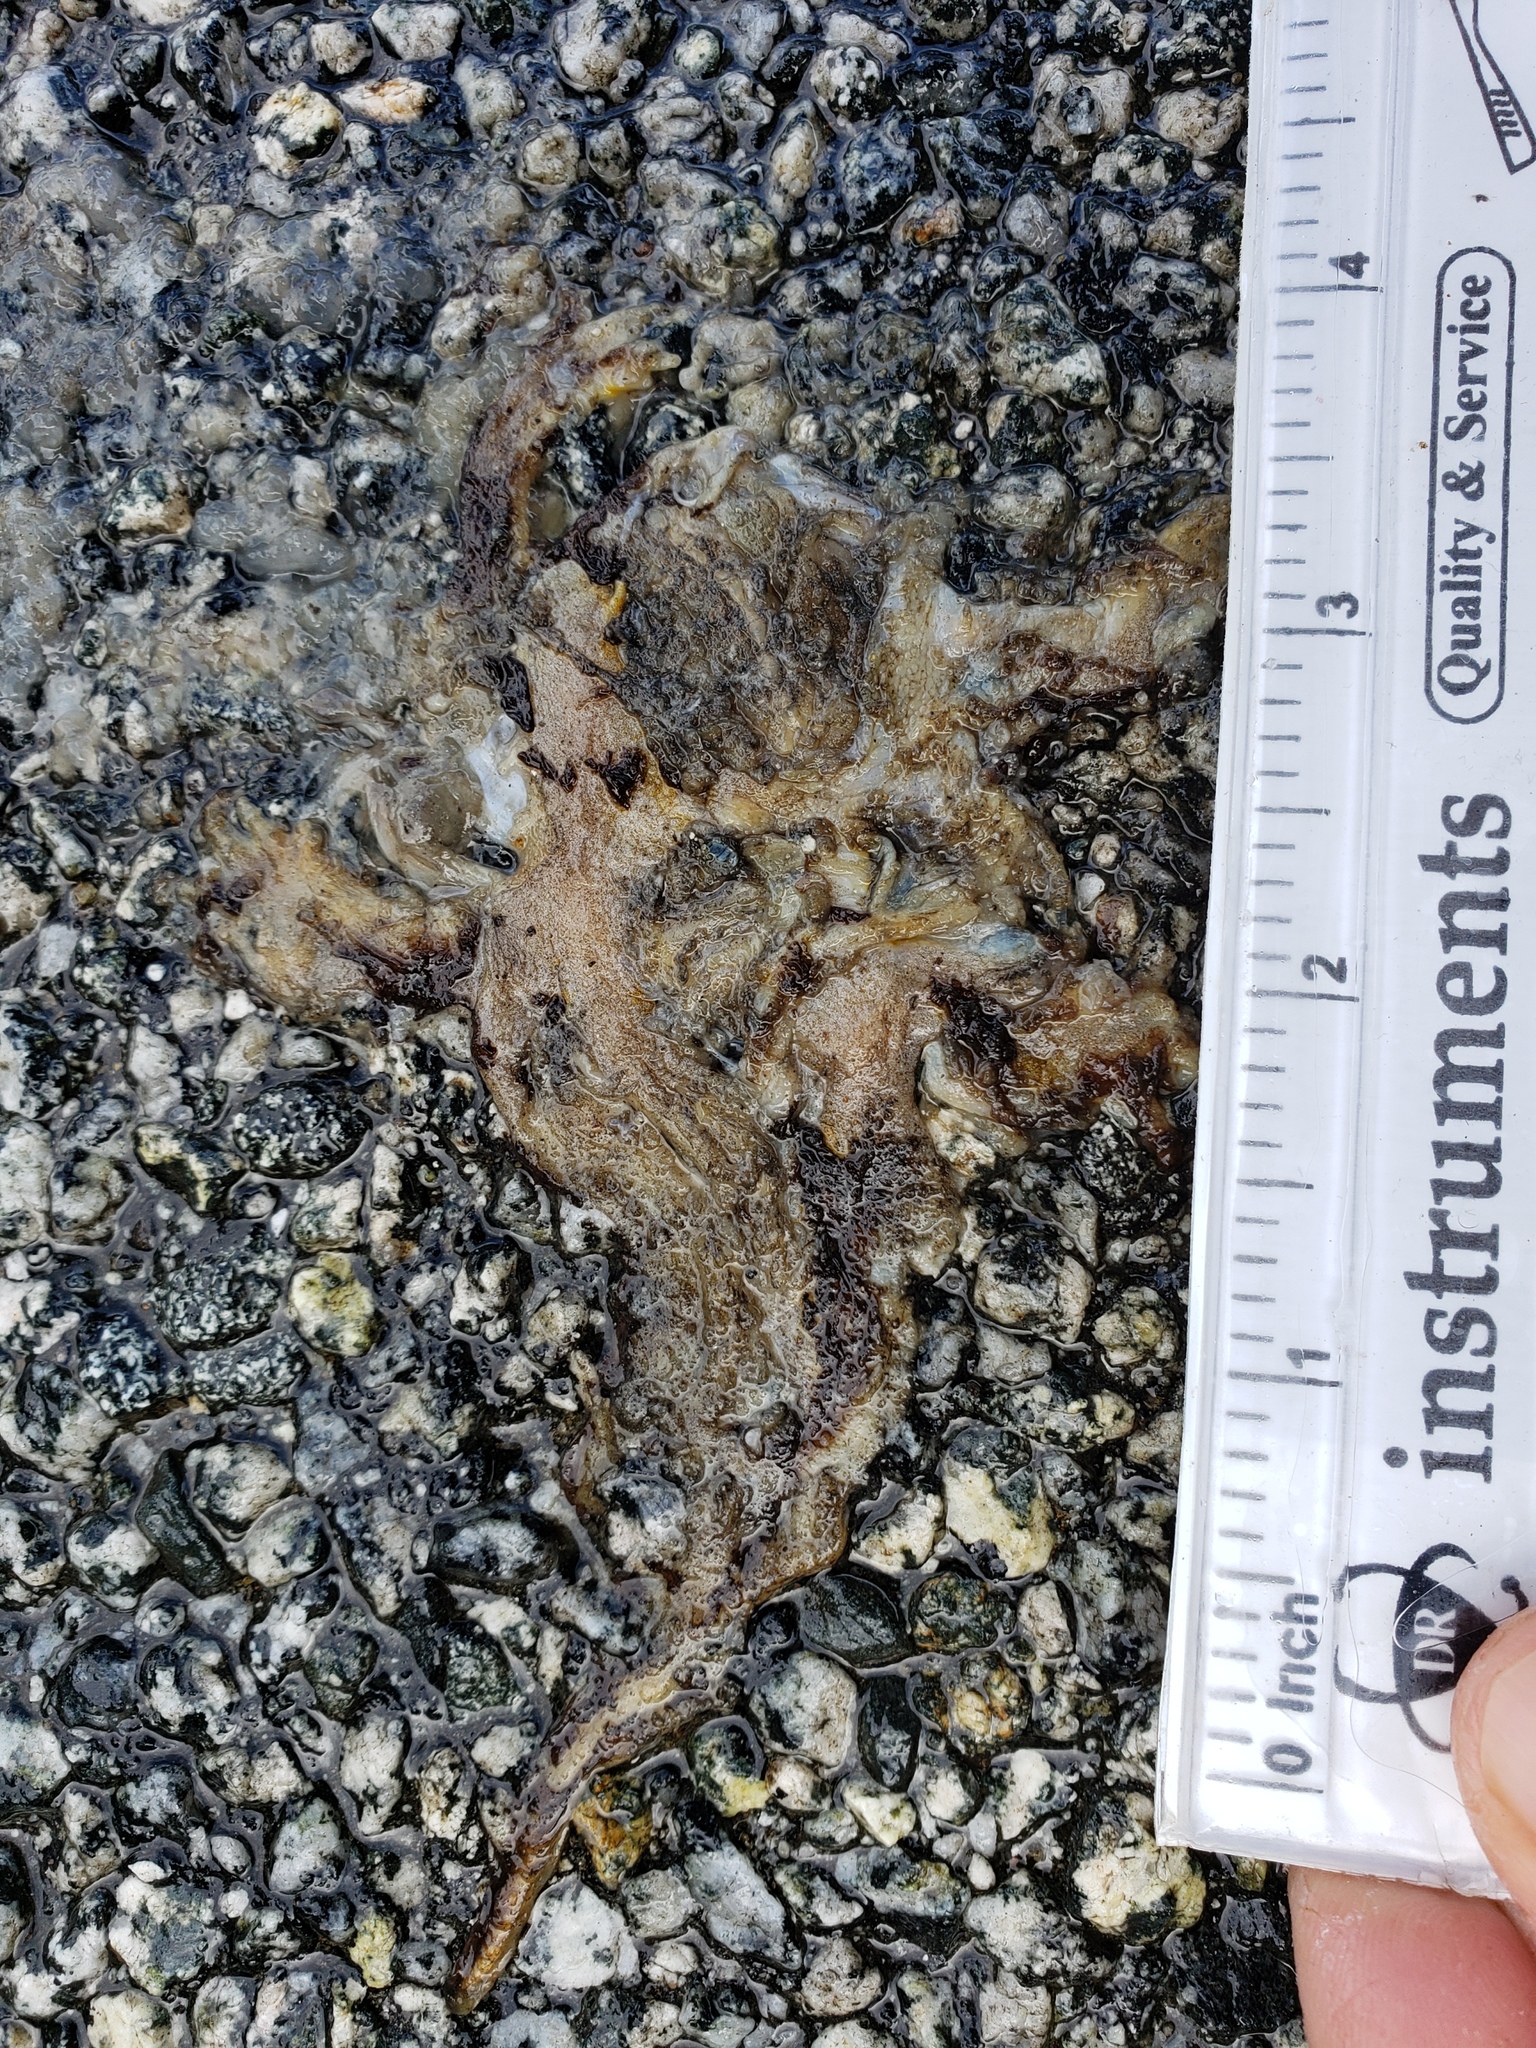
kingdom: Animalia
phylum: Chordata
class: Amphibia
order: Caudata
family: Salamandridae
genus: Taricha
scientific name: Taricha
